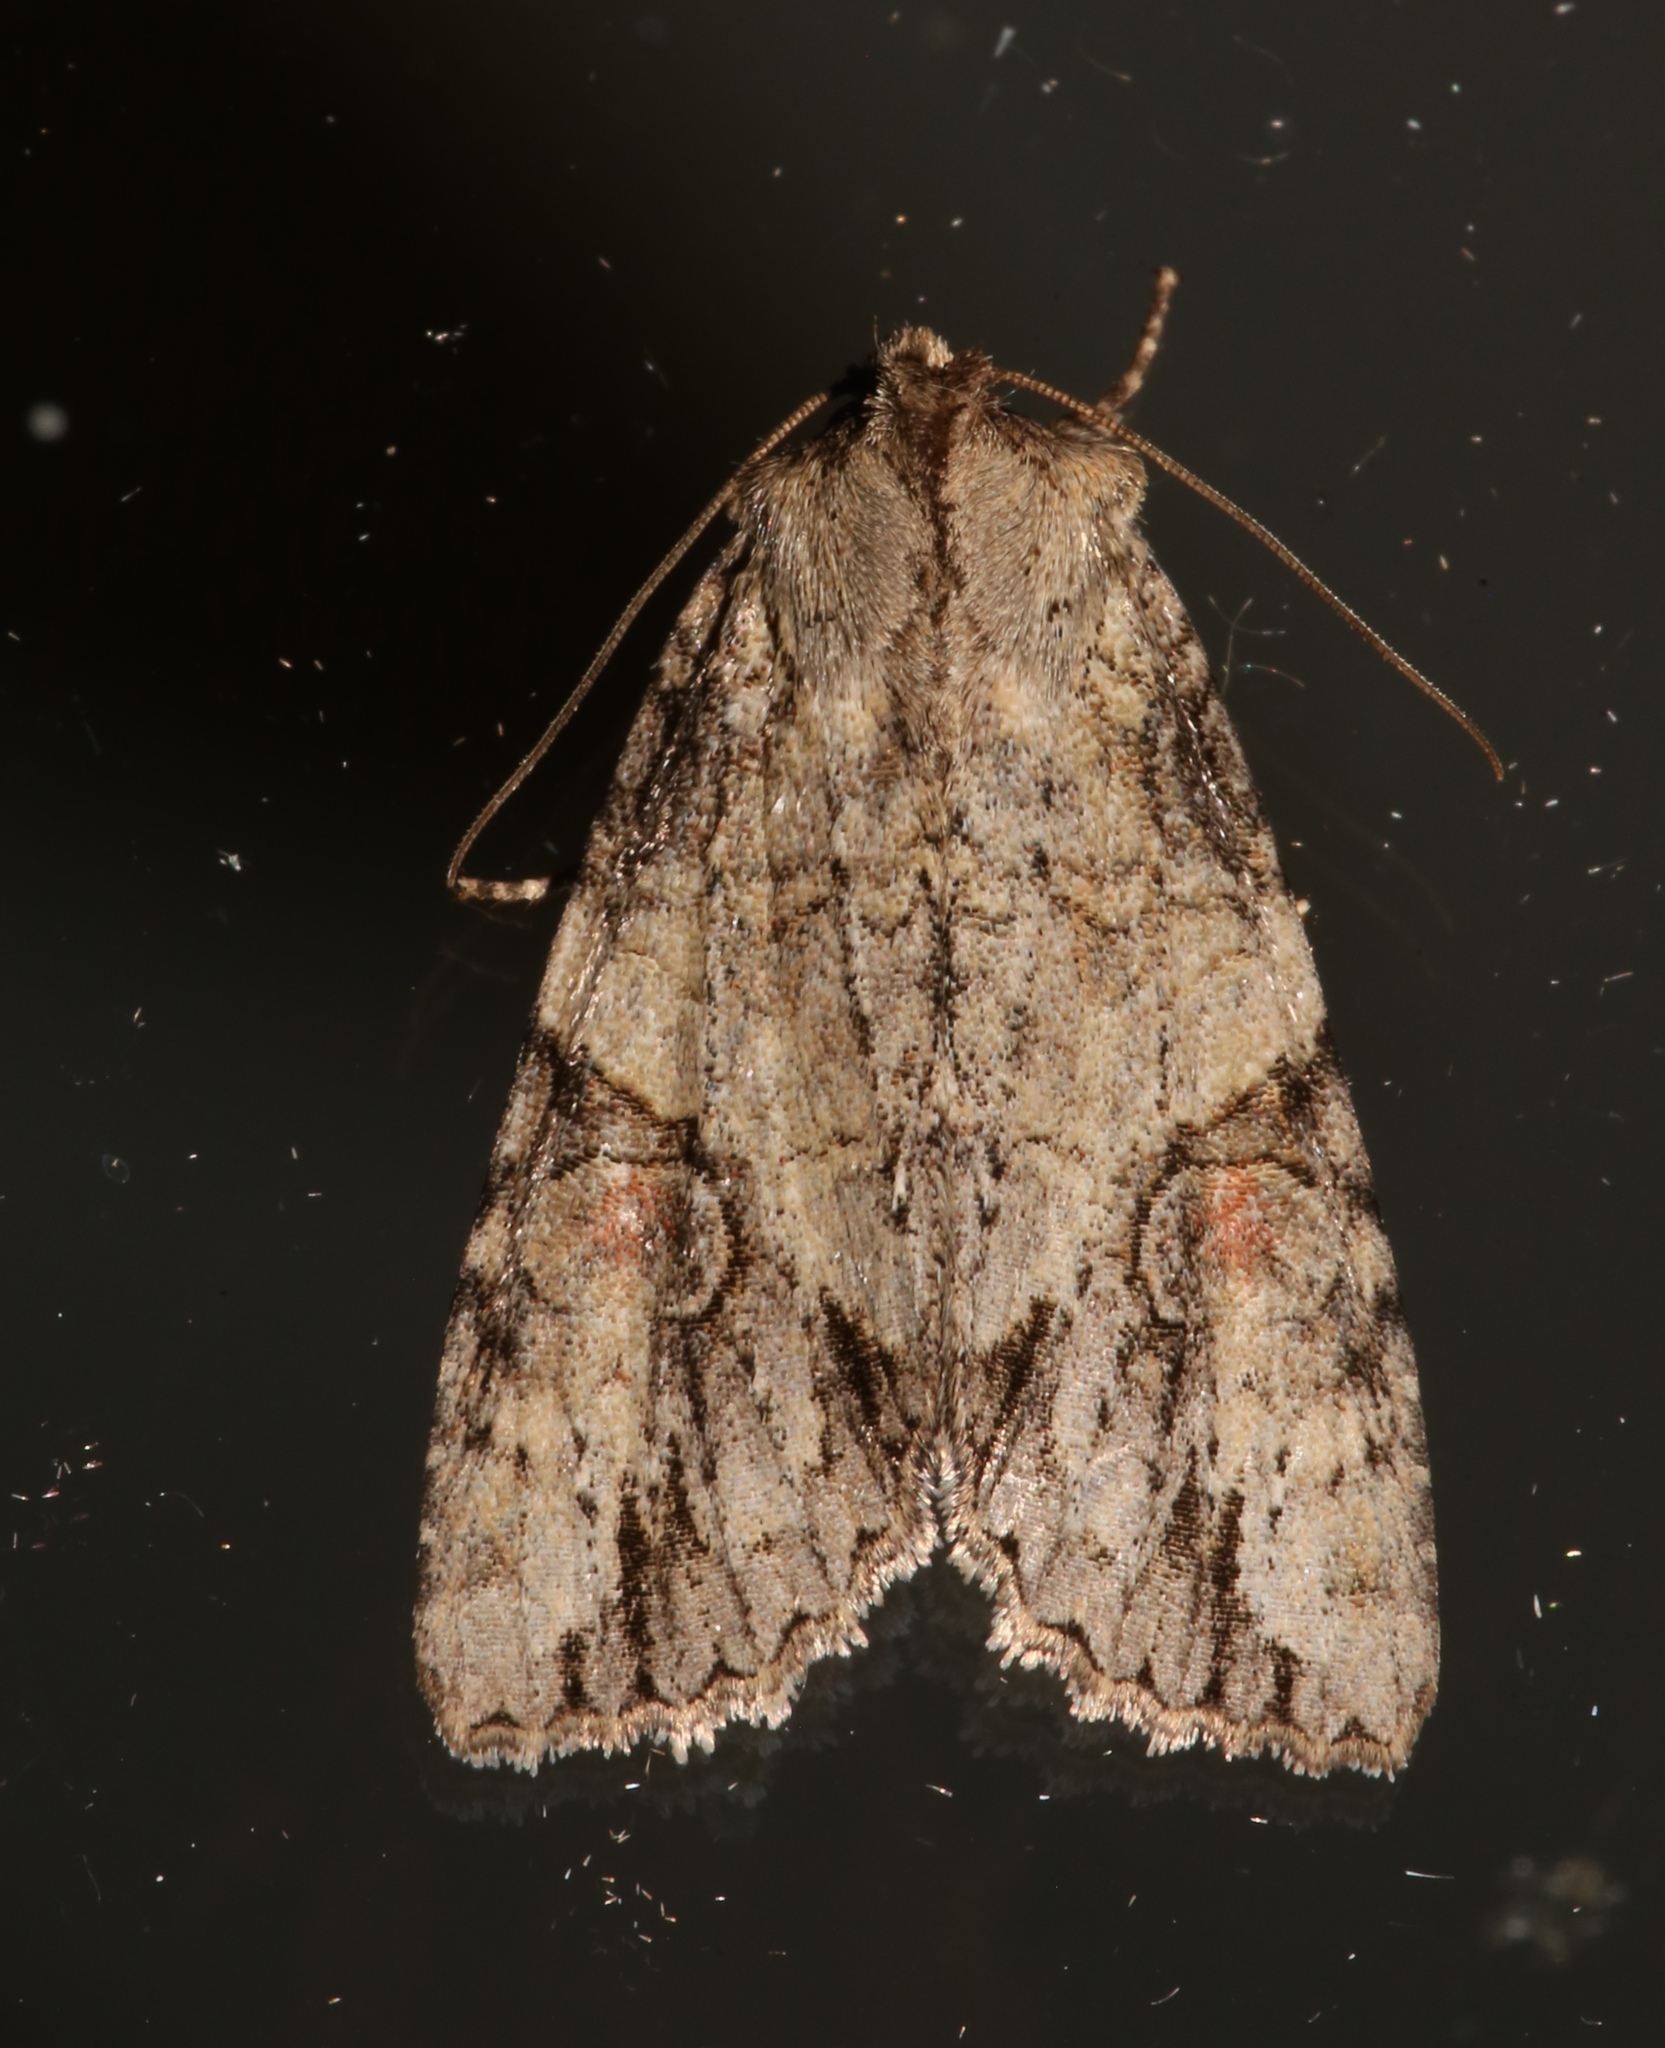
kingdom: Animalia
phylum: Arthropoda
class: Insecta
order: Lepidoptera
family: Noctuidae
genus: Achatia
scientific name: Achatia latex
